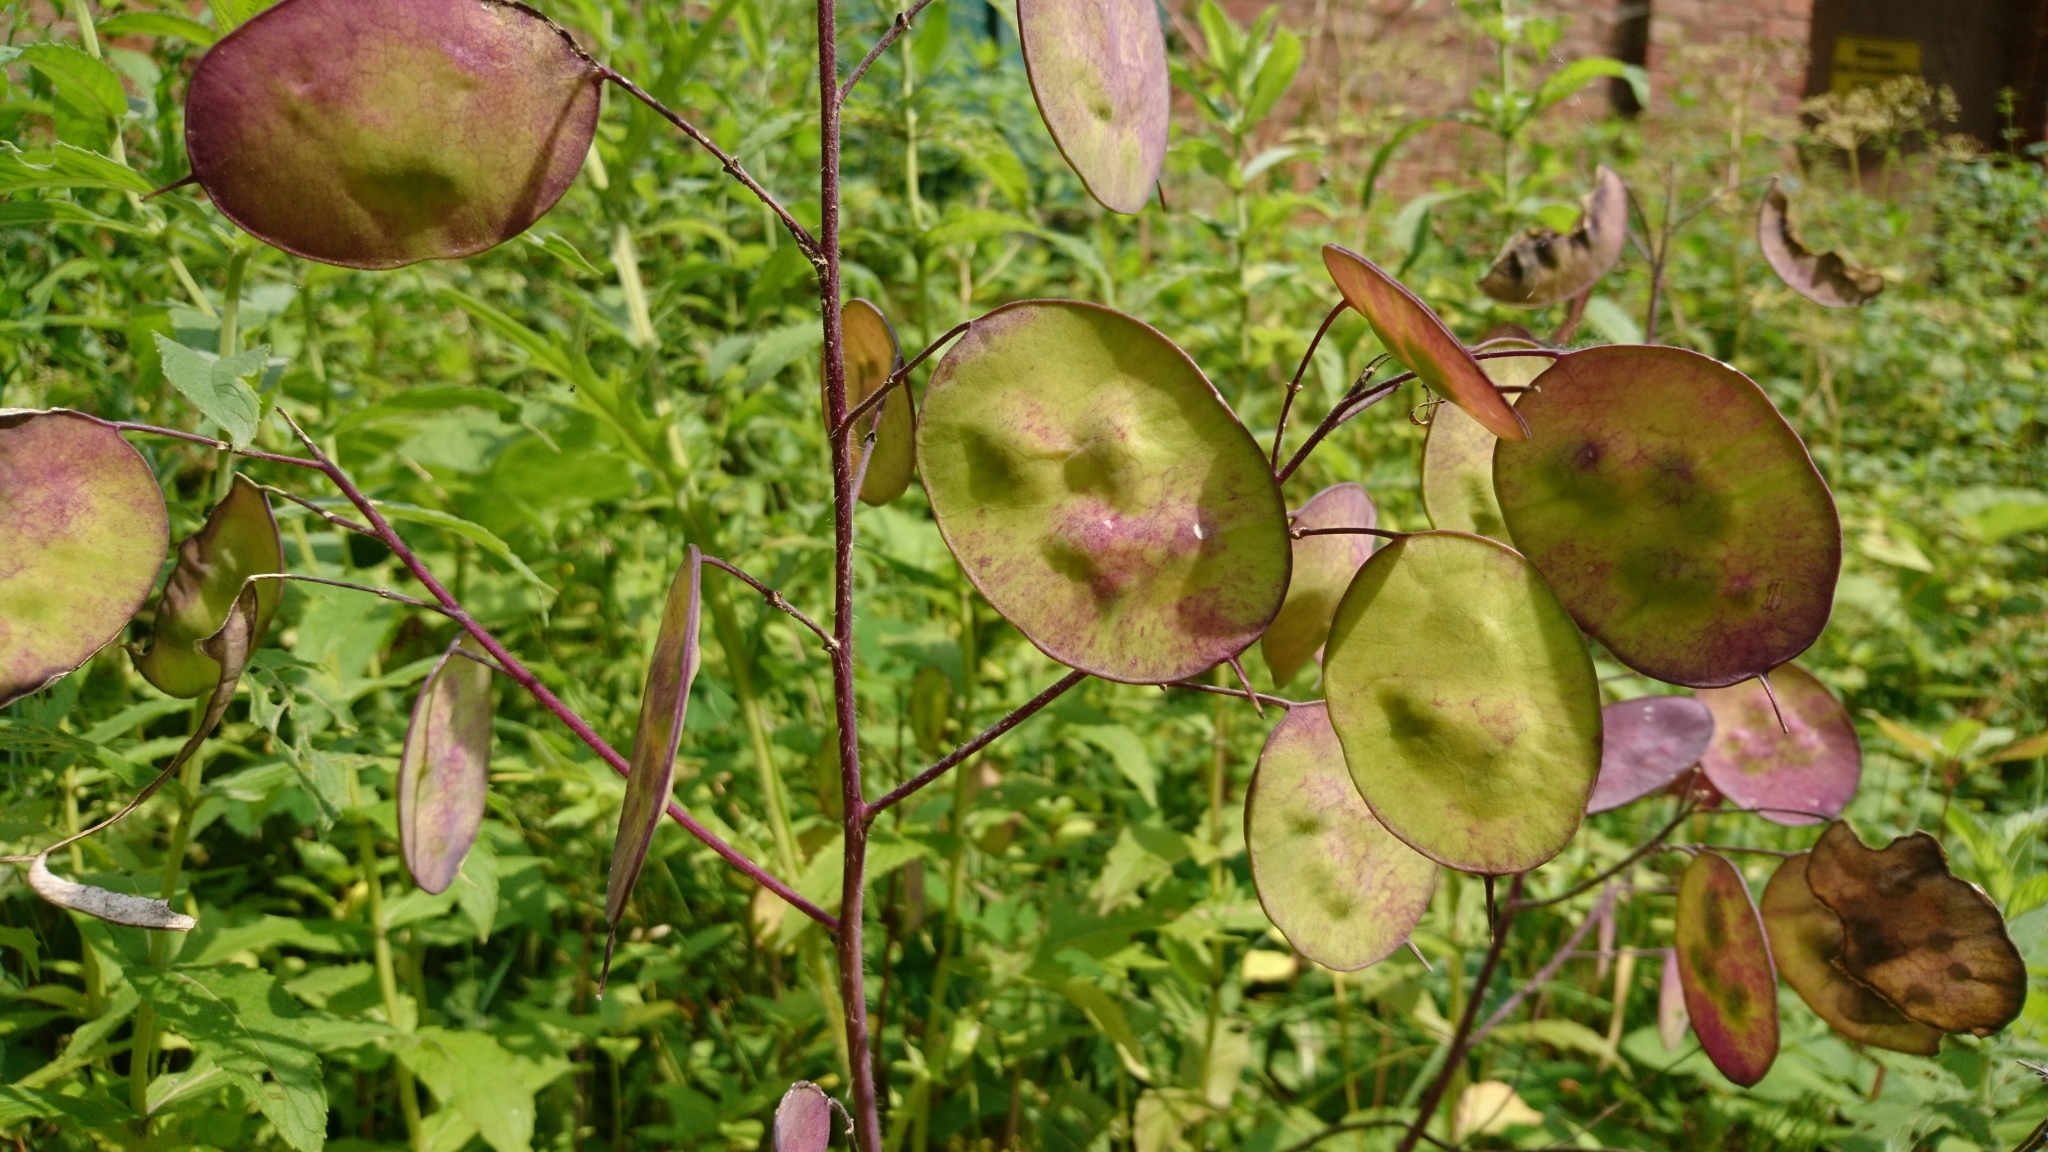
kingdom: Plantae
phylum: Tracheophyta
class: Magnoliopsida
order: Brassicales
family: Brassicaceae
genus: Lunaria
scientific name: Lunaria annua
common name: Honesty
